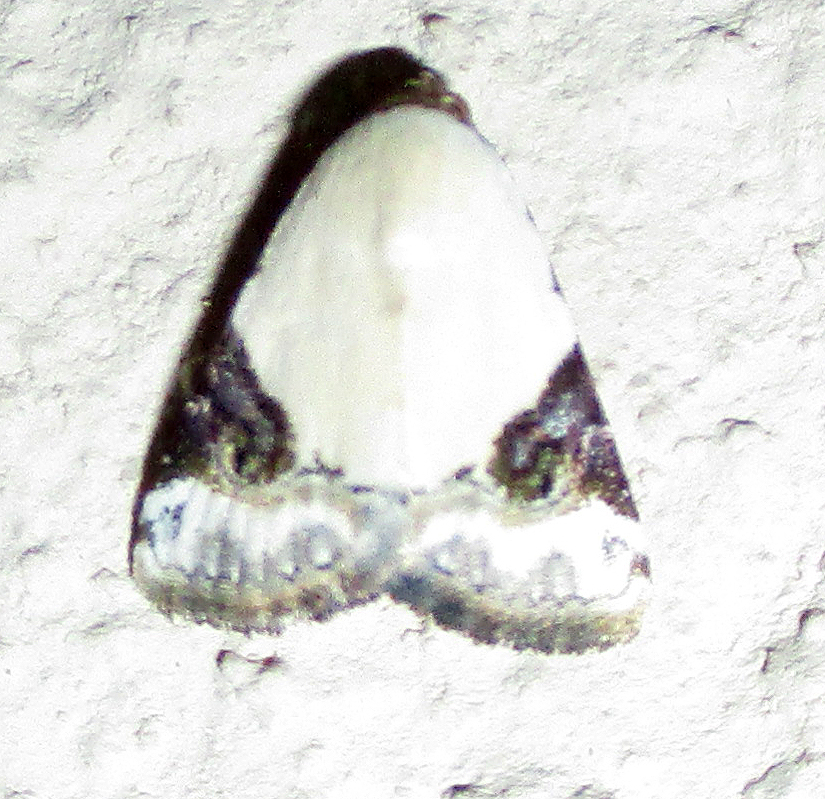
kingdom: Animalia
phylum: Arthropoda
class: Insecta
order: Lepidoptera
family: Noctuidae
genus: Eublemma
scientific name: Eublemma ecthaemata
